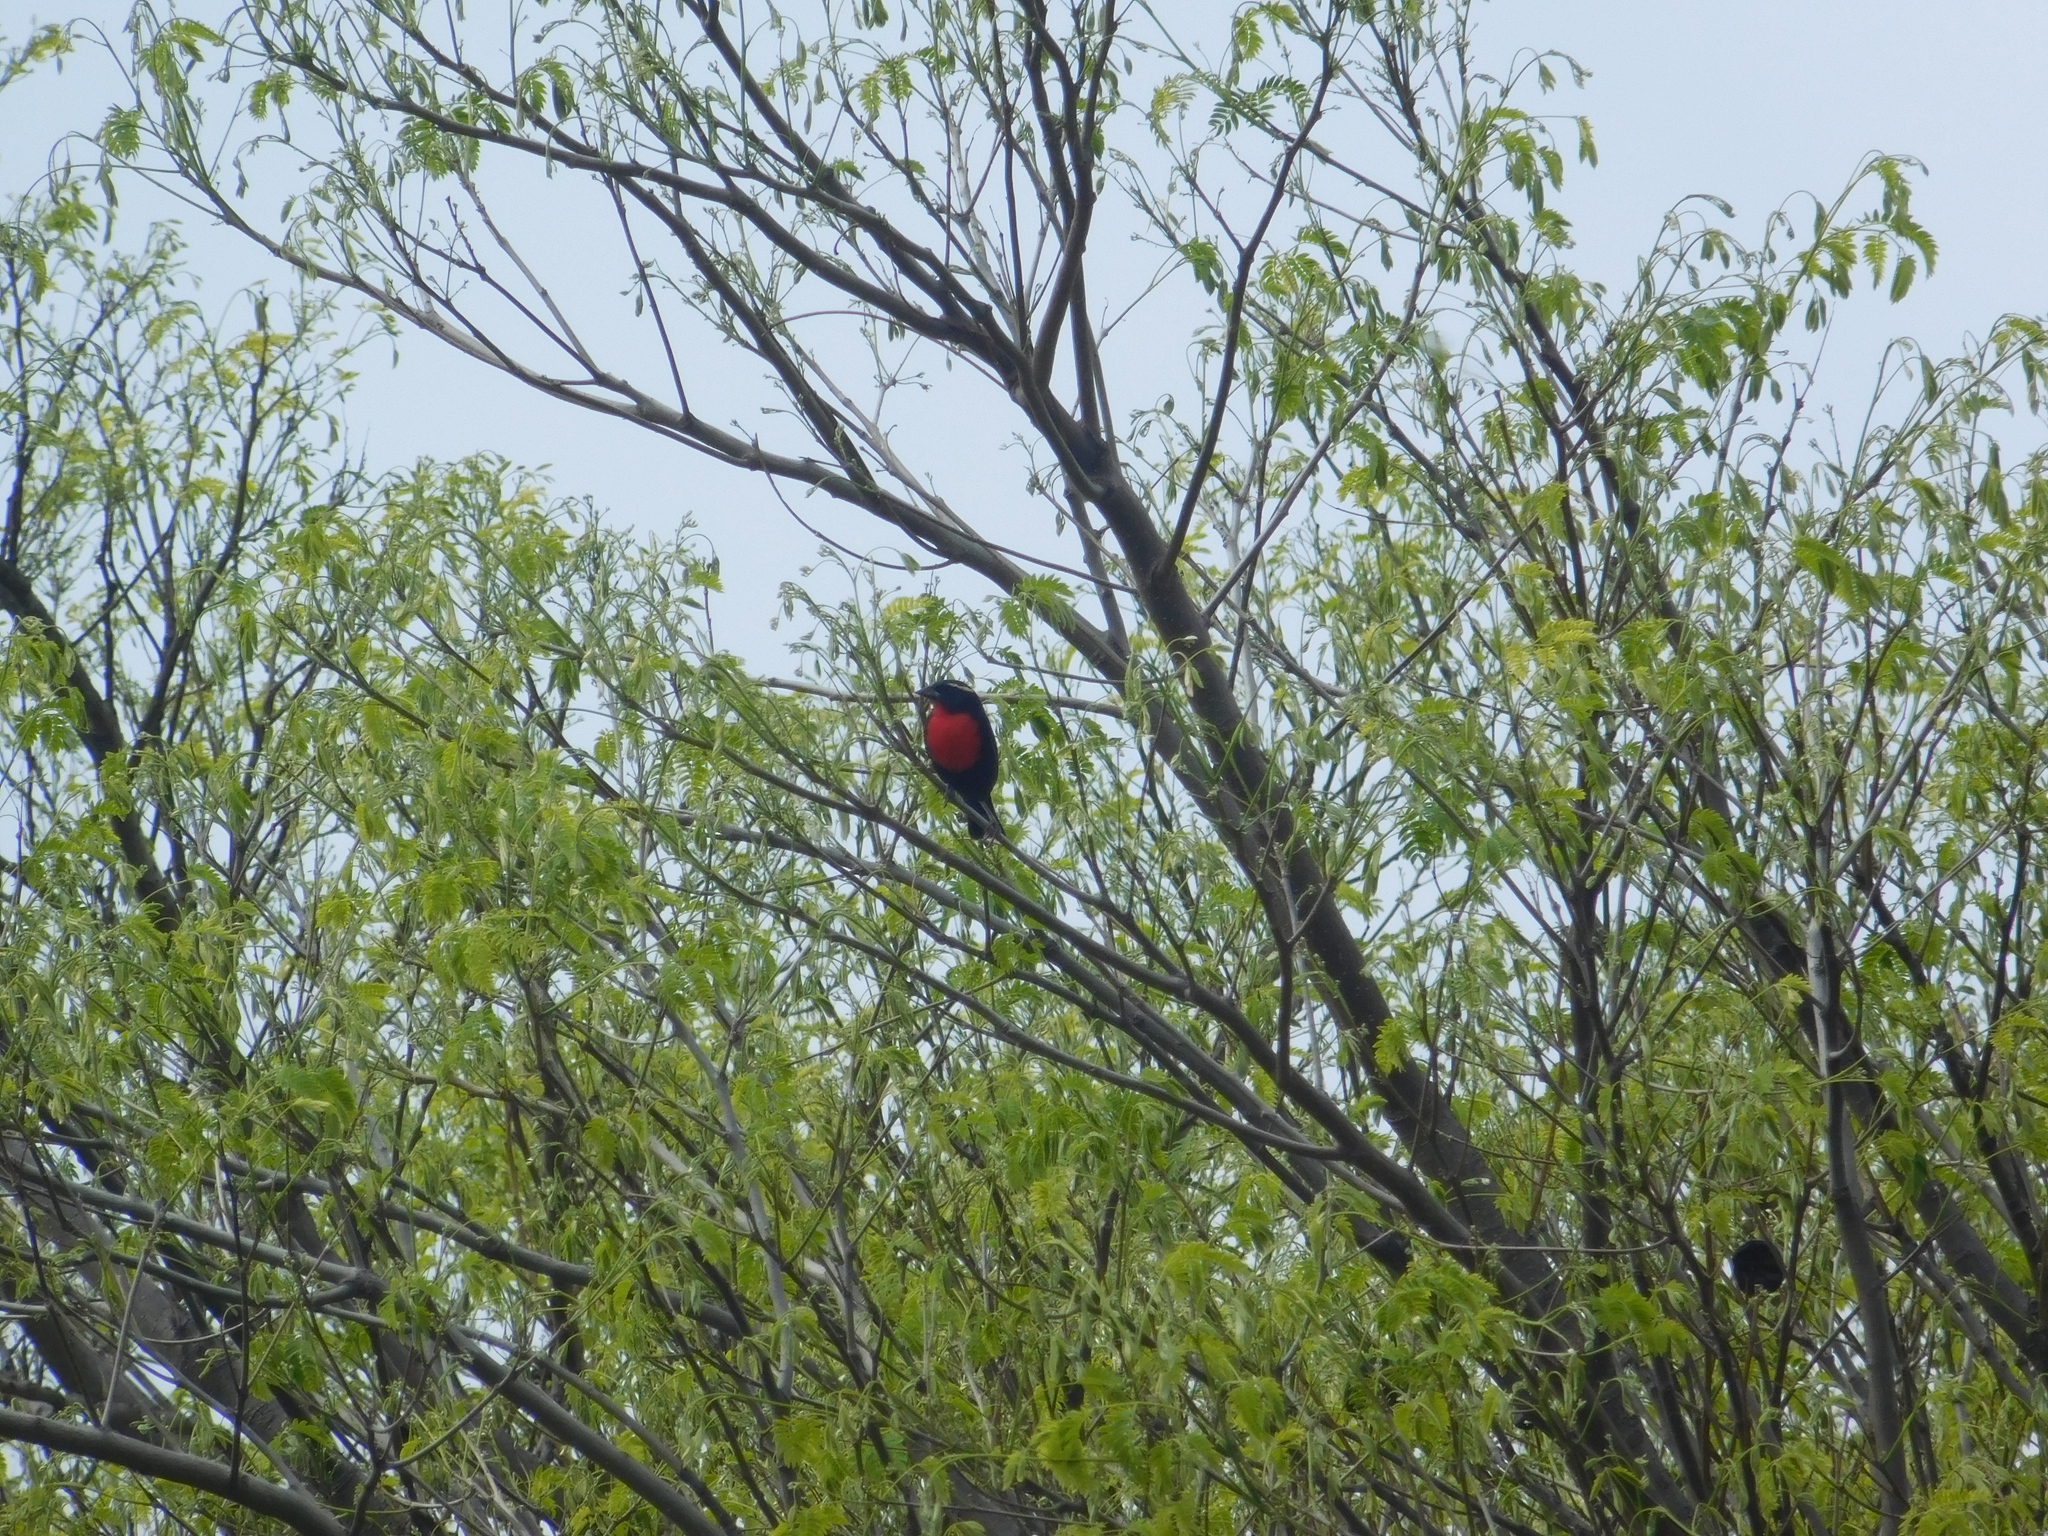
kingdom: Animalia
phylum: Chordata
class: Aves
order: Passeriformes
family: Icteridae
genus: Sturnella
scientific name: Sturnella superciliaris
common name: White-browed blackbird
